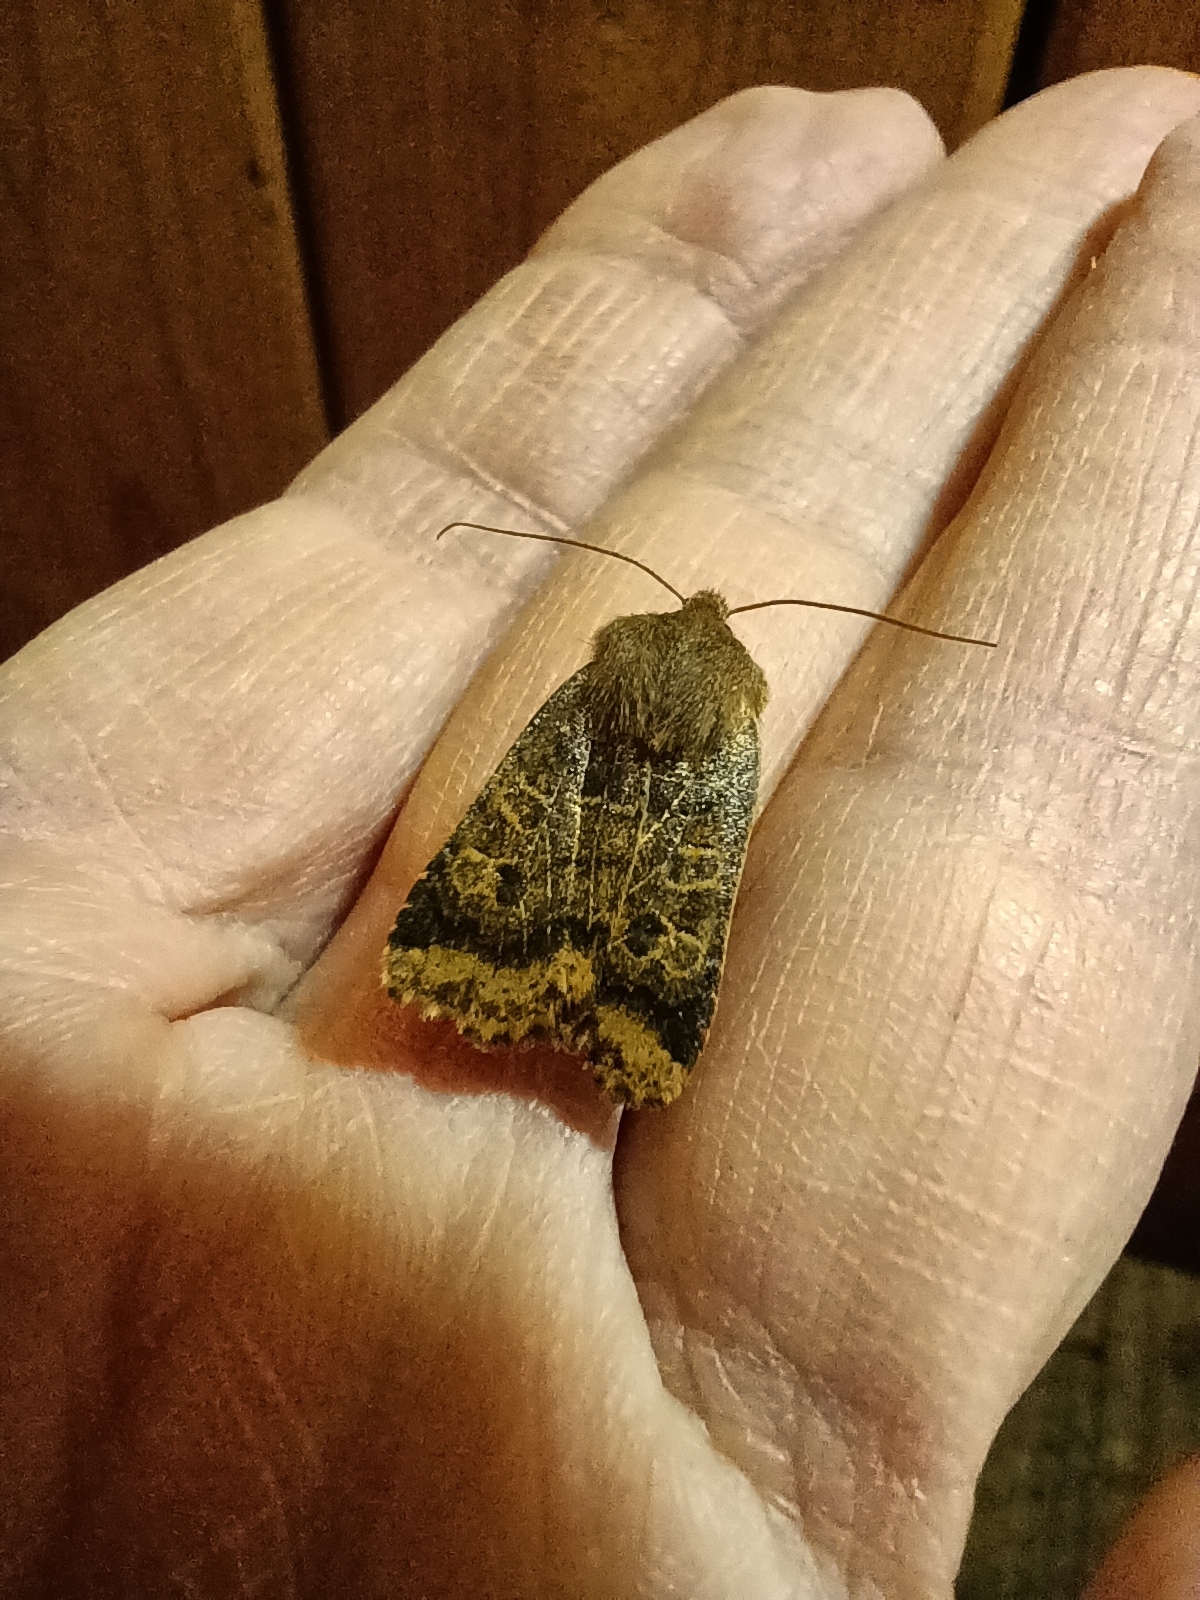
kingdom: Animalia
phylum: Arthropoda
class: Insecta
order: Lepidoptera
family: Noctuidae
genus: Conistra
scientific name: Conistra vaccinii
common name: Chestnut
